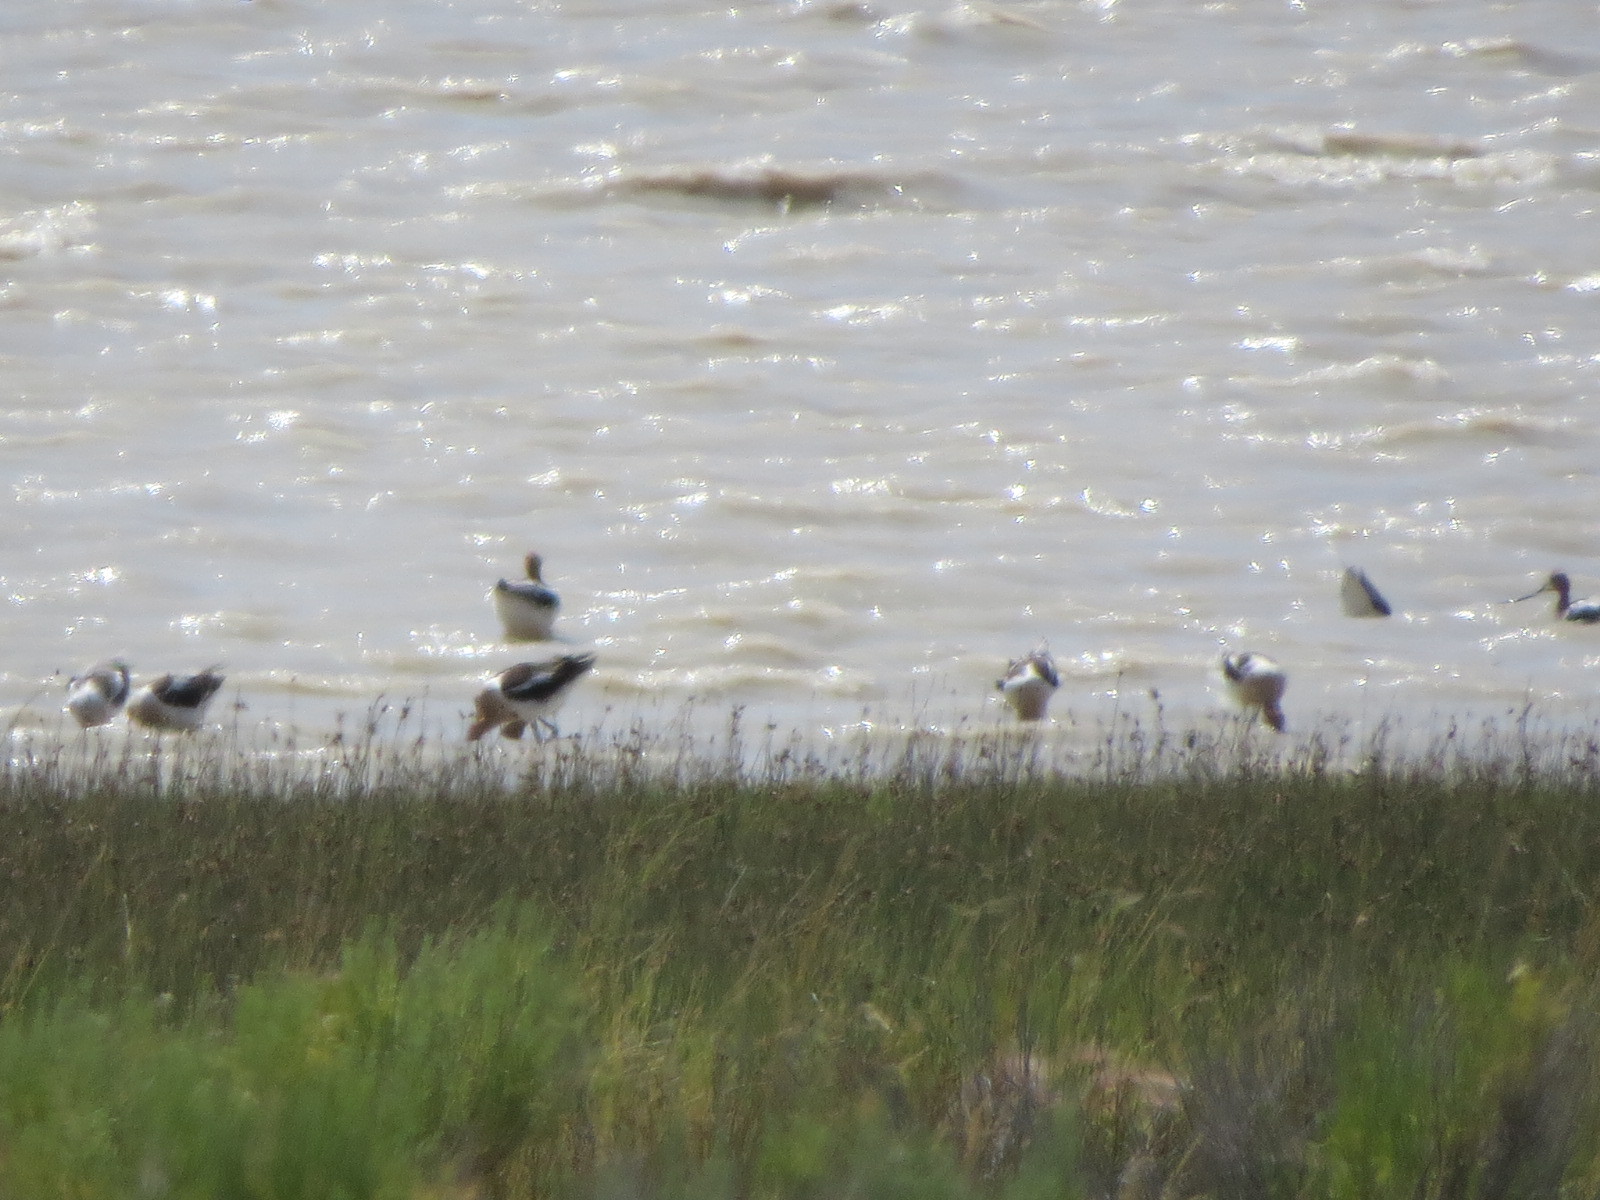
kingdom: Animalia
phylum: Chordata
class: Aves
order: Charadriiformes
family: Recurvirostridae
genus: Recurvirostra
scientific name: Recurvirostra americana
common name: American avocet
